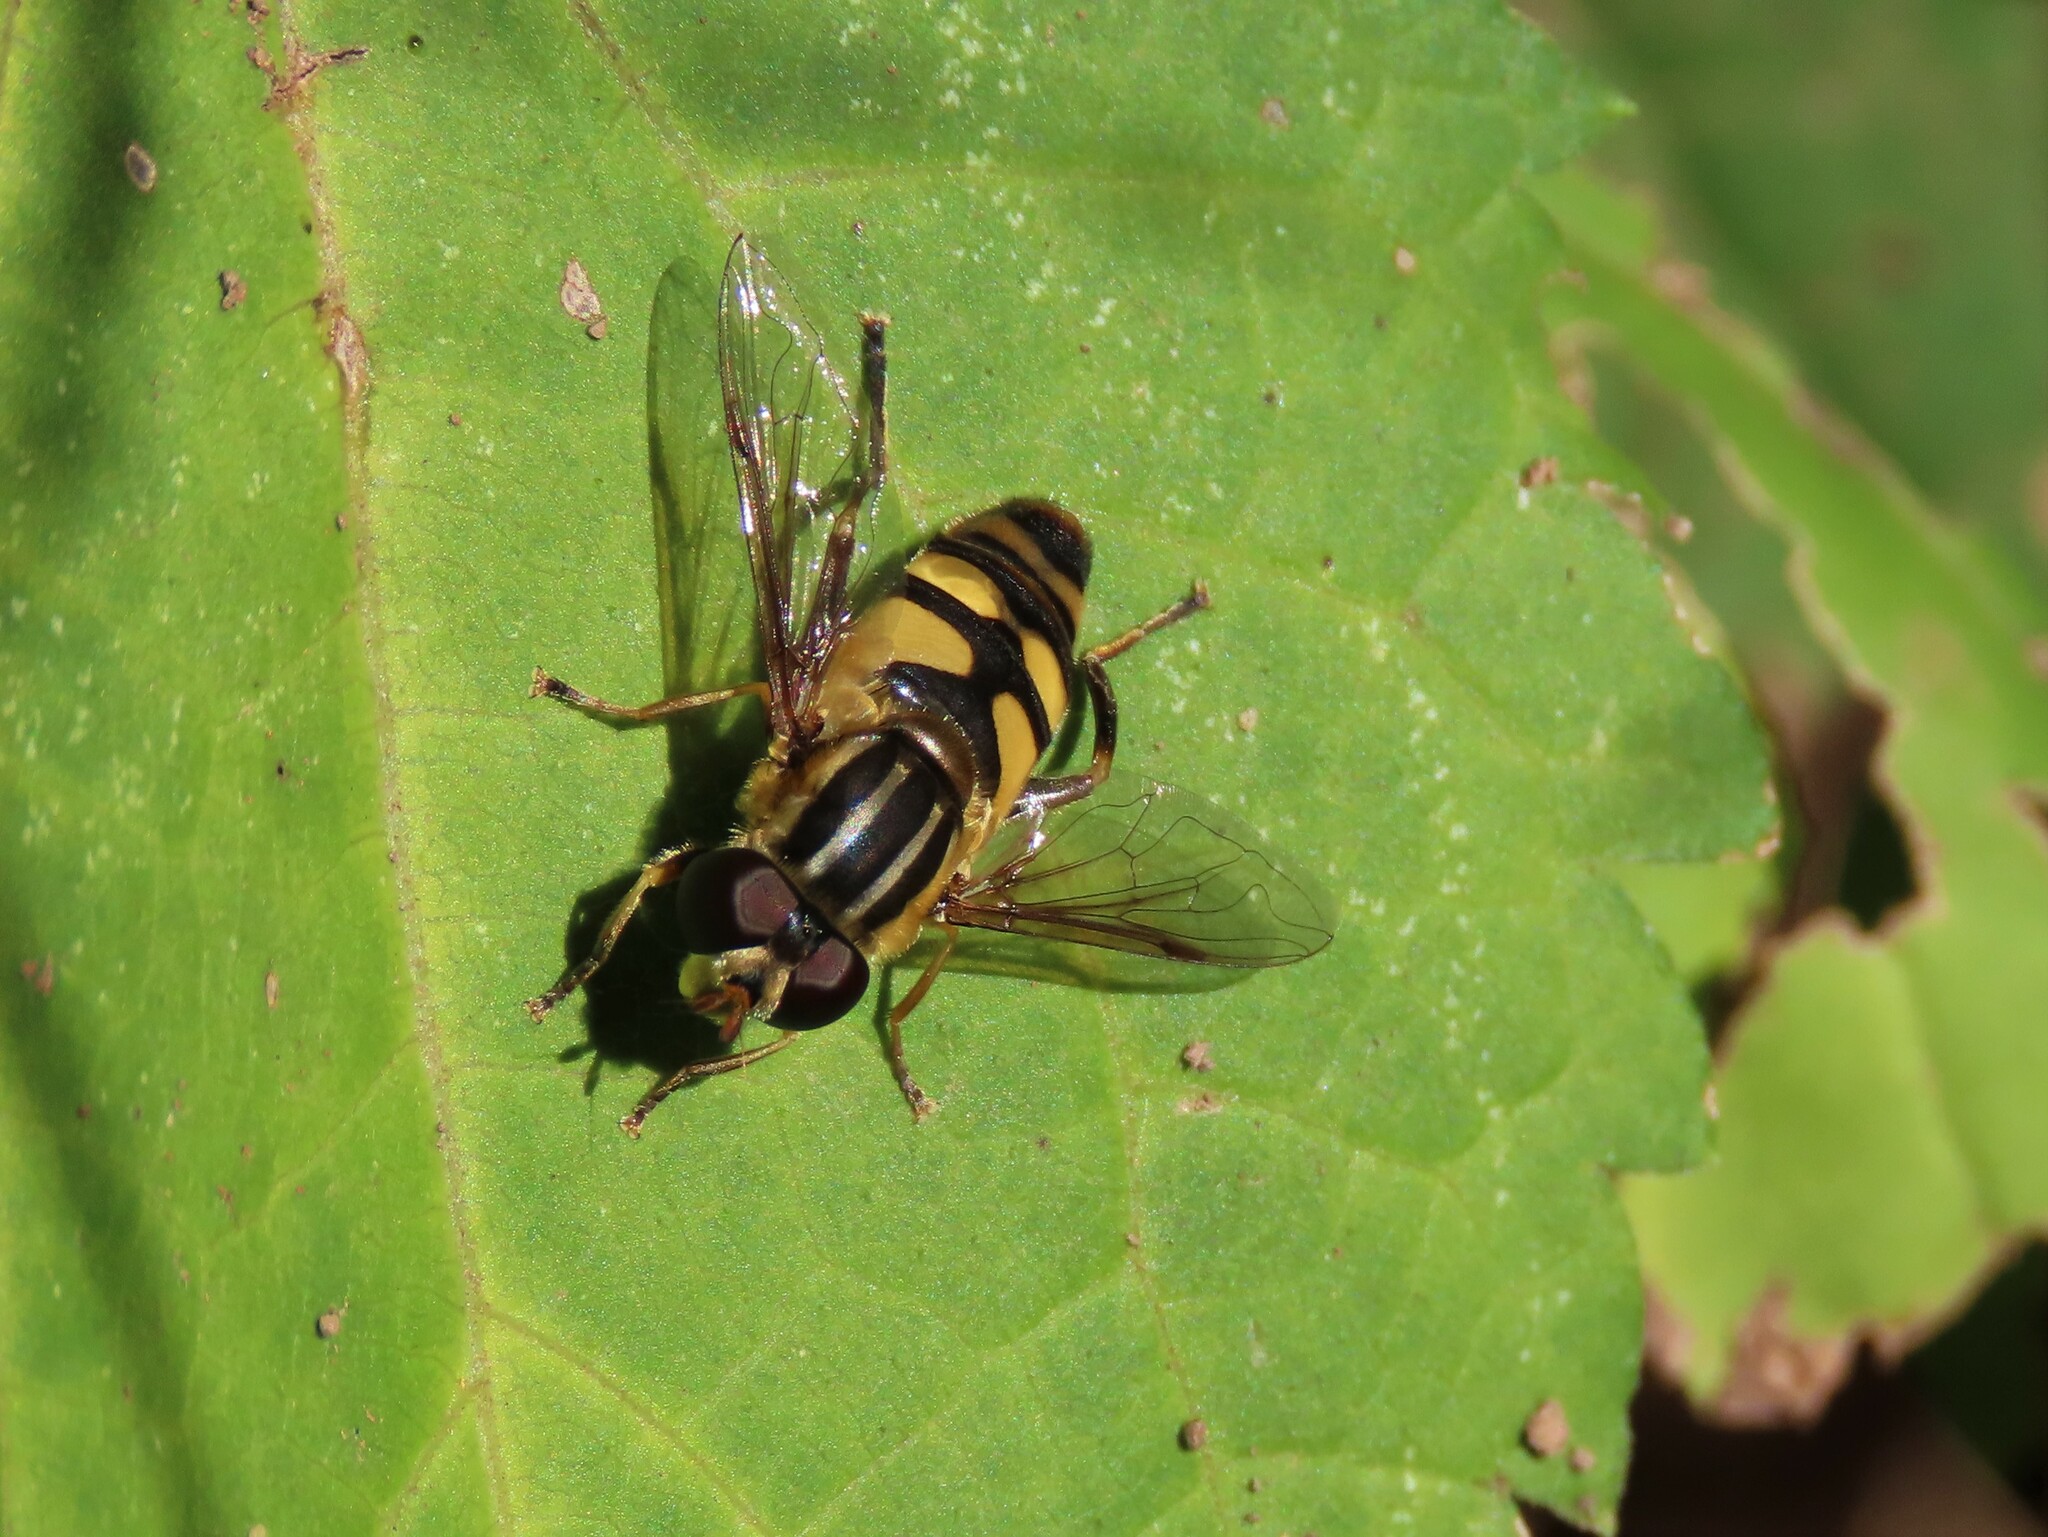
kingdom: Animalia
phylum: Arthropoda
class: Insecta
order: Diptera
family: Syrphidae
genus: Helophilus
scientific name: Helophilus fasciatus
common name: Narrow-headed marsh fly
